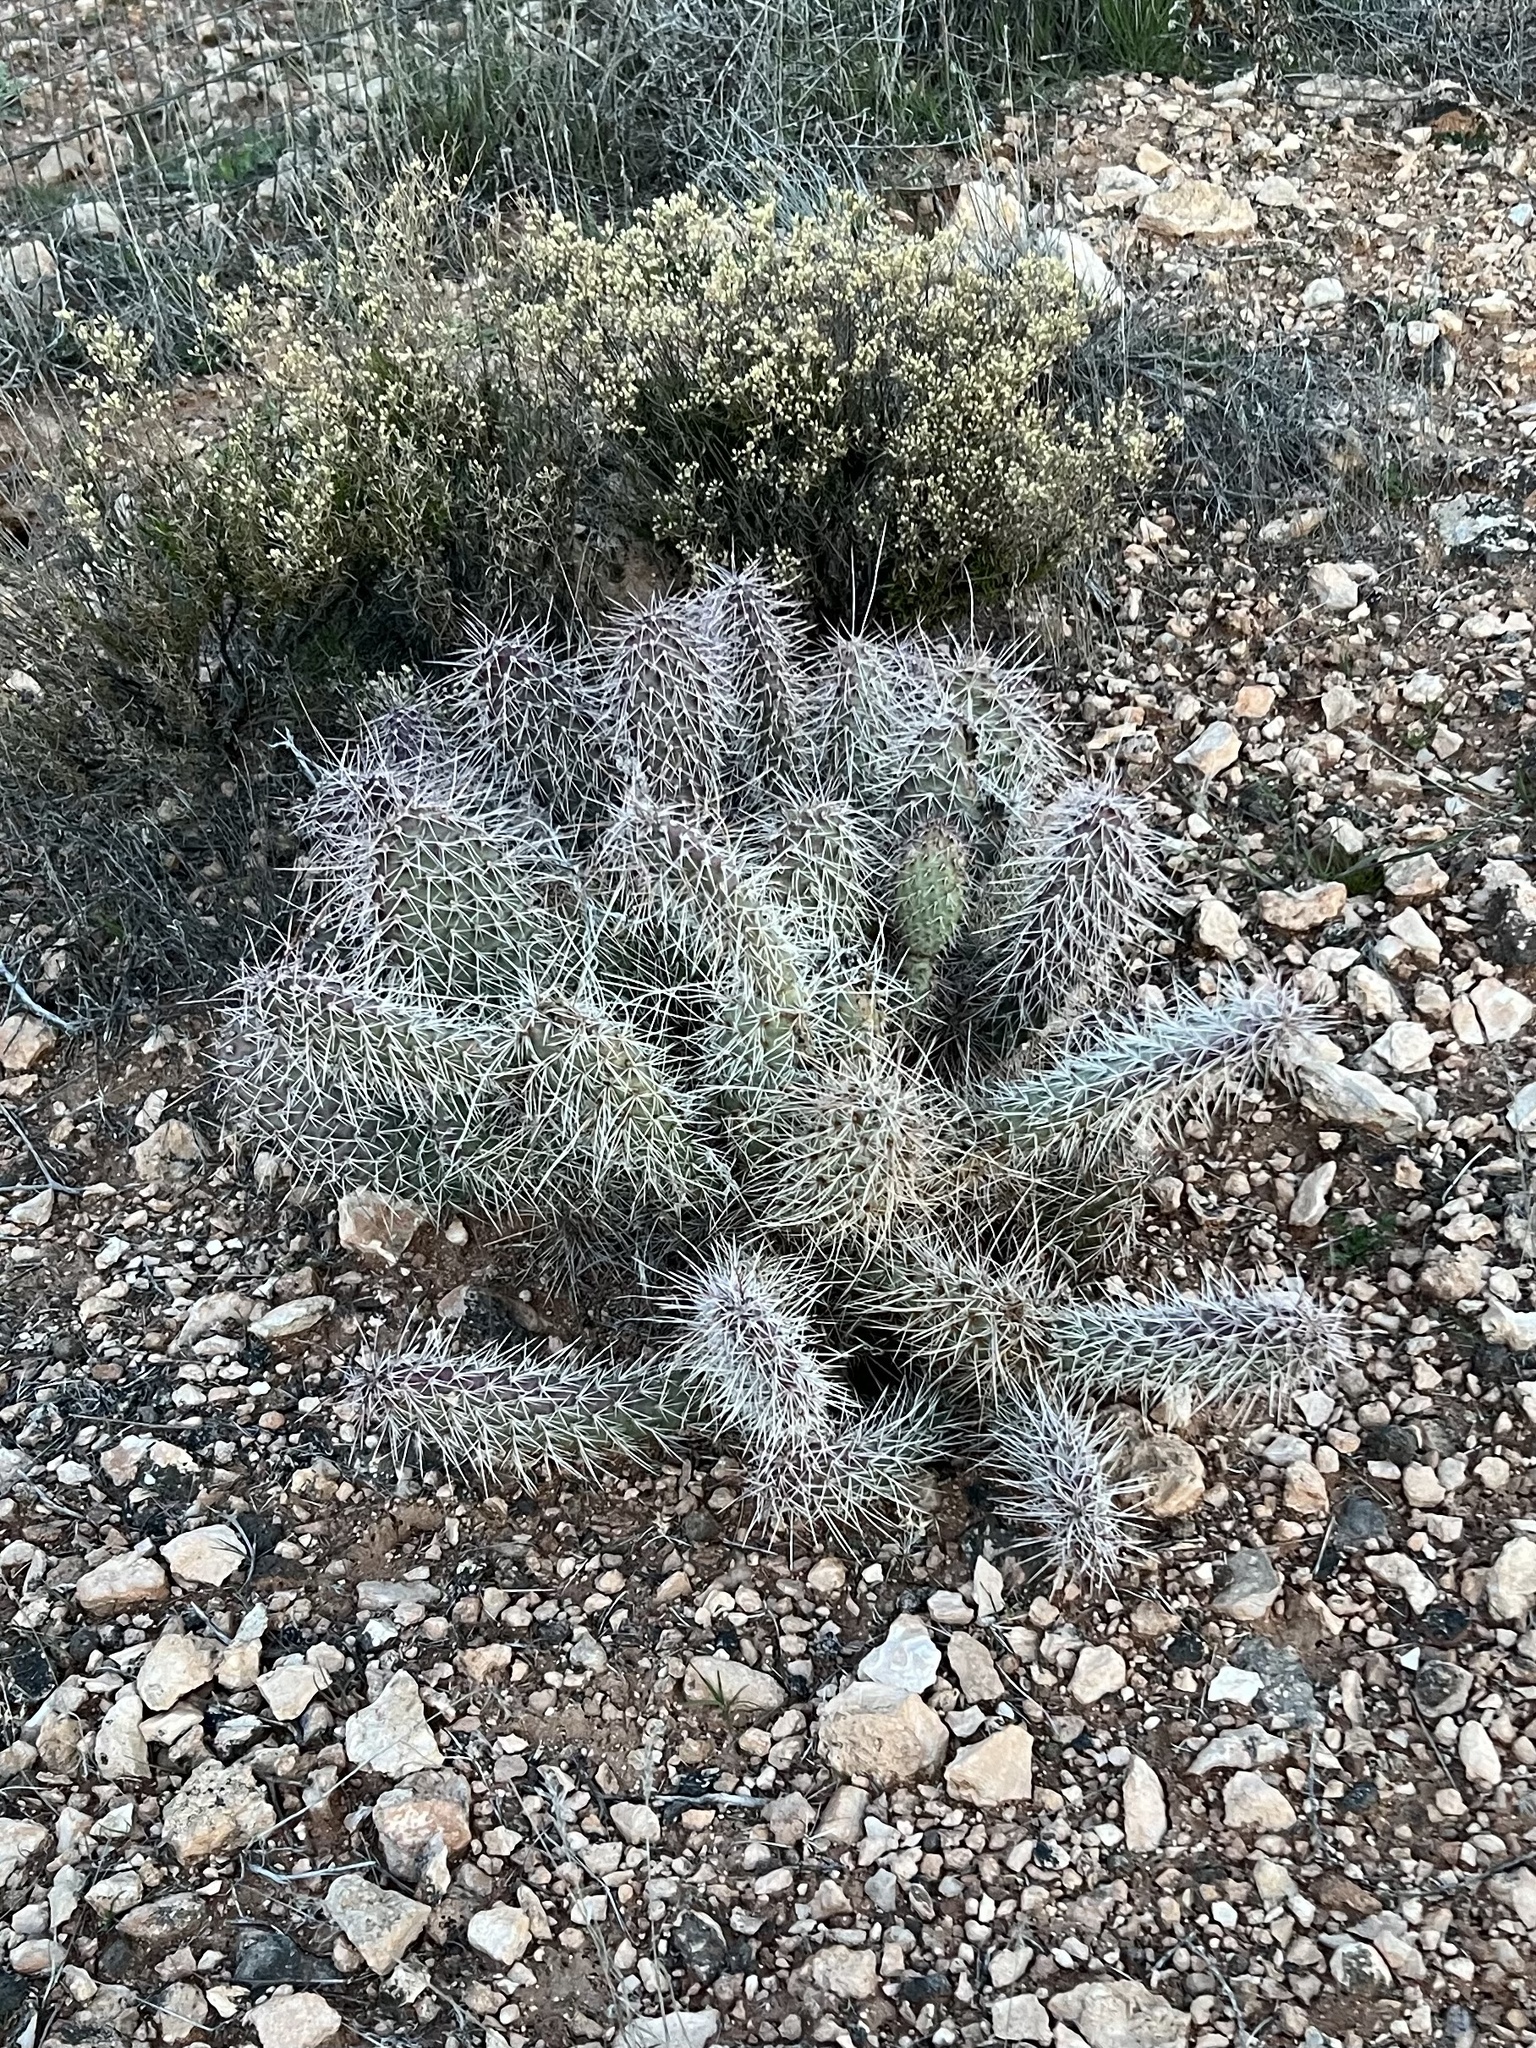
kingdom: Plantae
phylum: Tracheophyta
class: Magnoliopsida
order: Caryophyllales
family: Cactaceae
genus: Opuntia
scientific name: Opuntia polyacantha
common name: Plains prickly-pear
